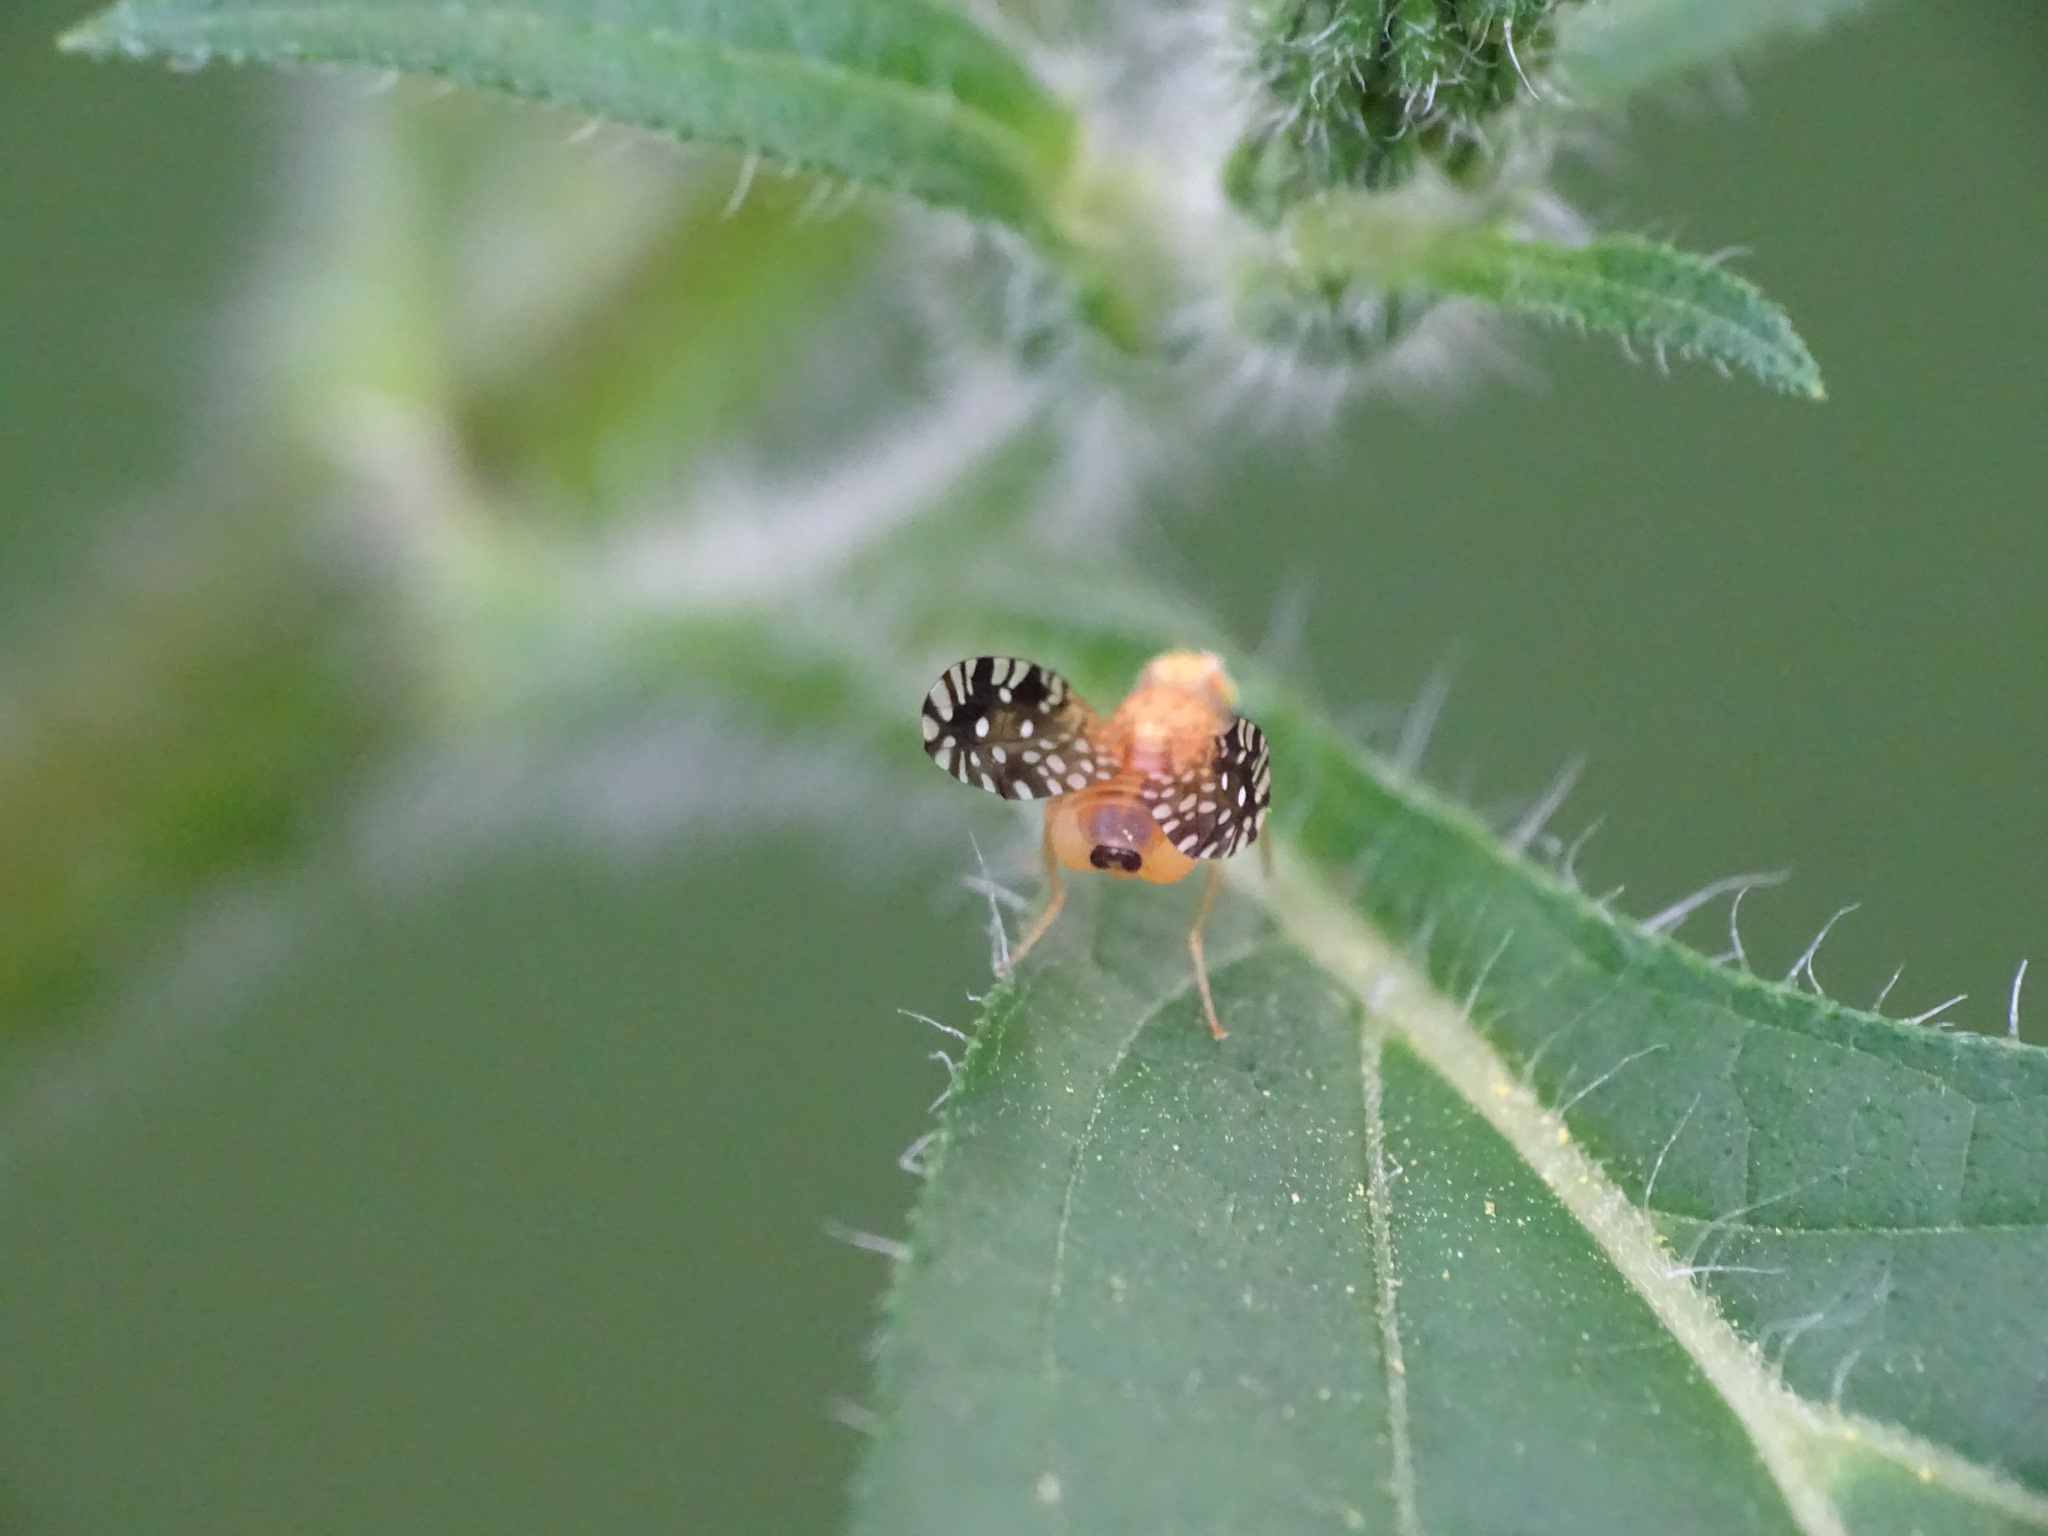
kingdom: Animalia
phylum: Arthropoda
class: Insecta
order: Diptera
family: Tephritidae
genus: Euaresta
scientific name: Euaresta festiva
